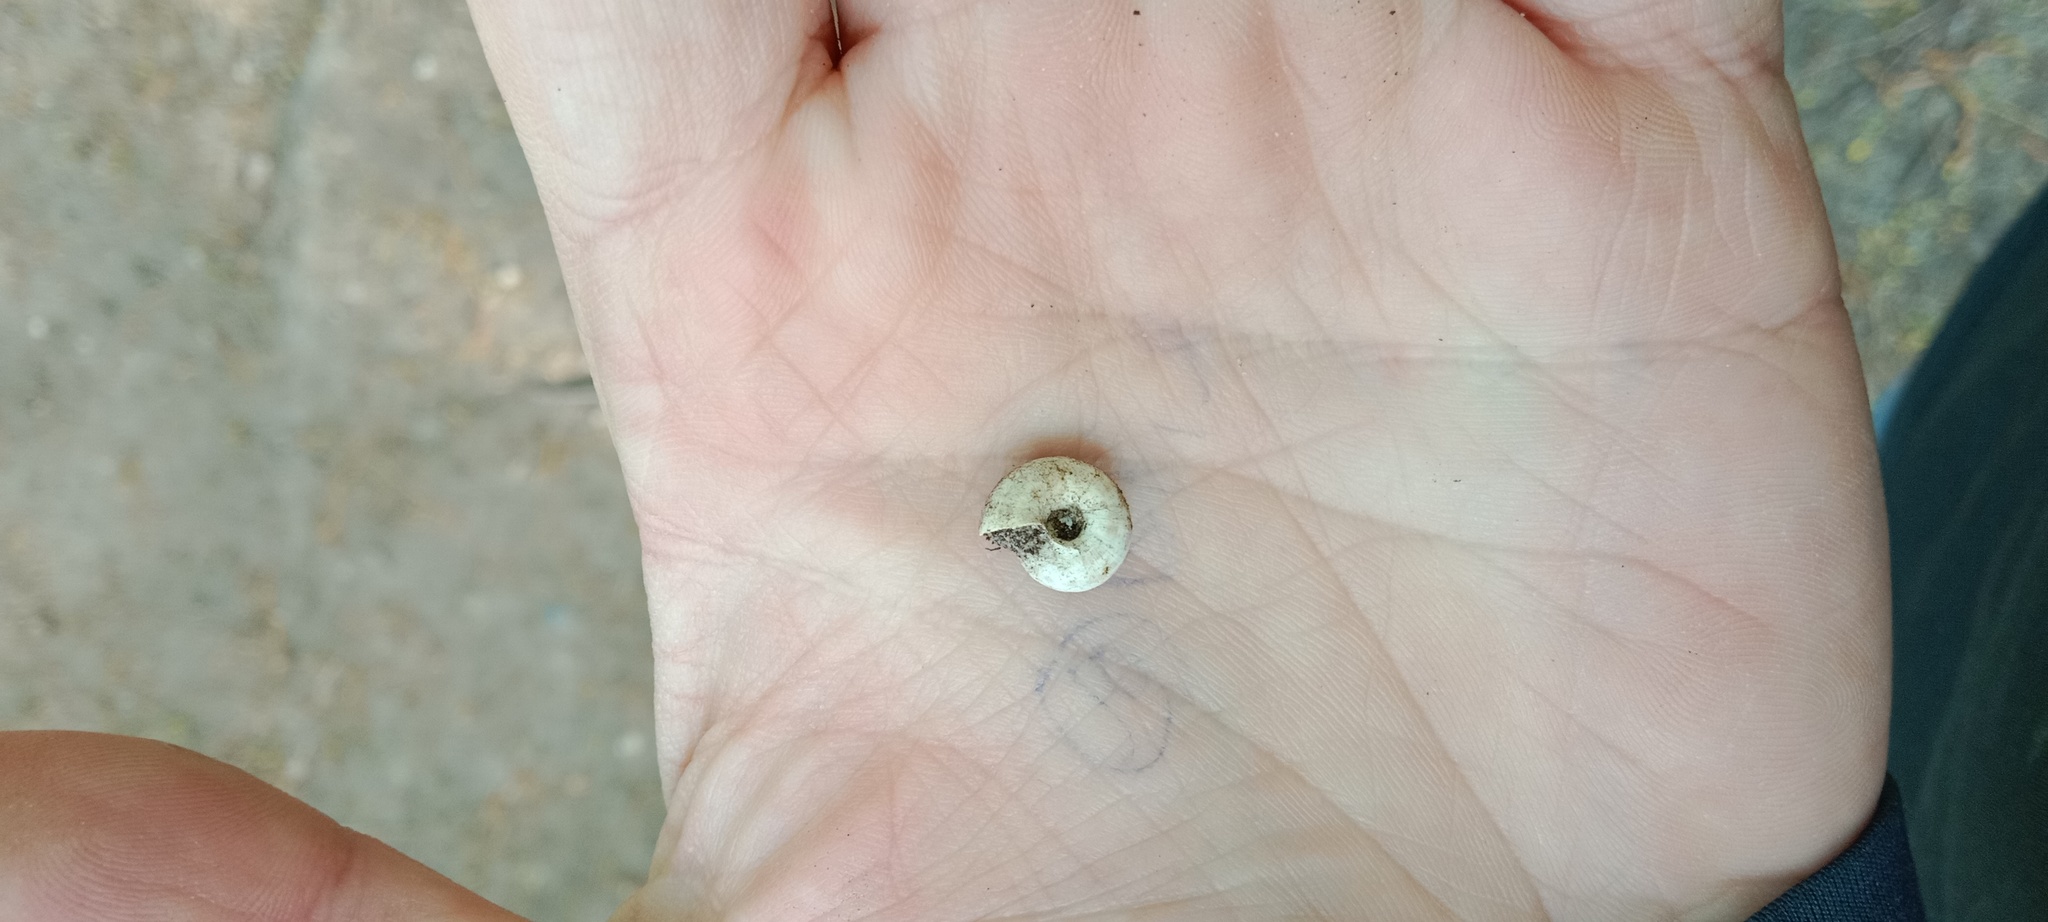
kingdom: Animalia
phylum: Mollusca
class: Gastropoda
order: Stylommatophora
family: Geomitridae
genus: Xerolenta
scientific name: Xerolenta obvia
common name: White heath snail
